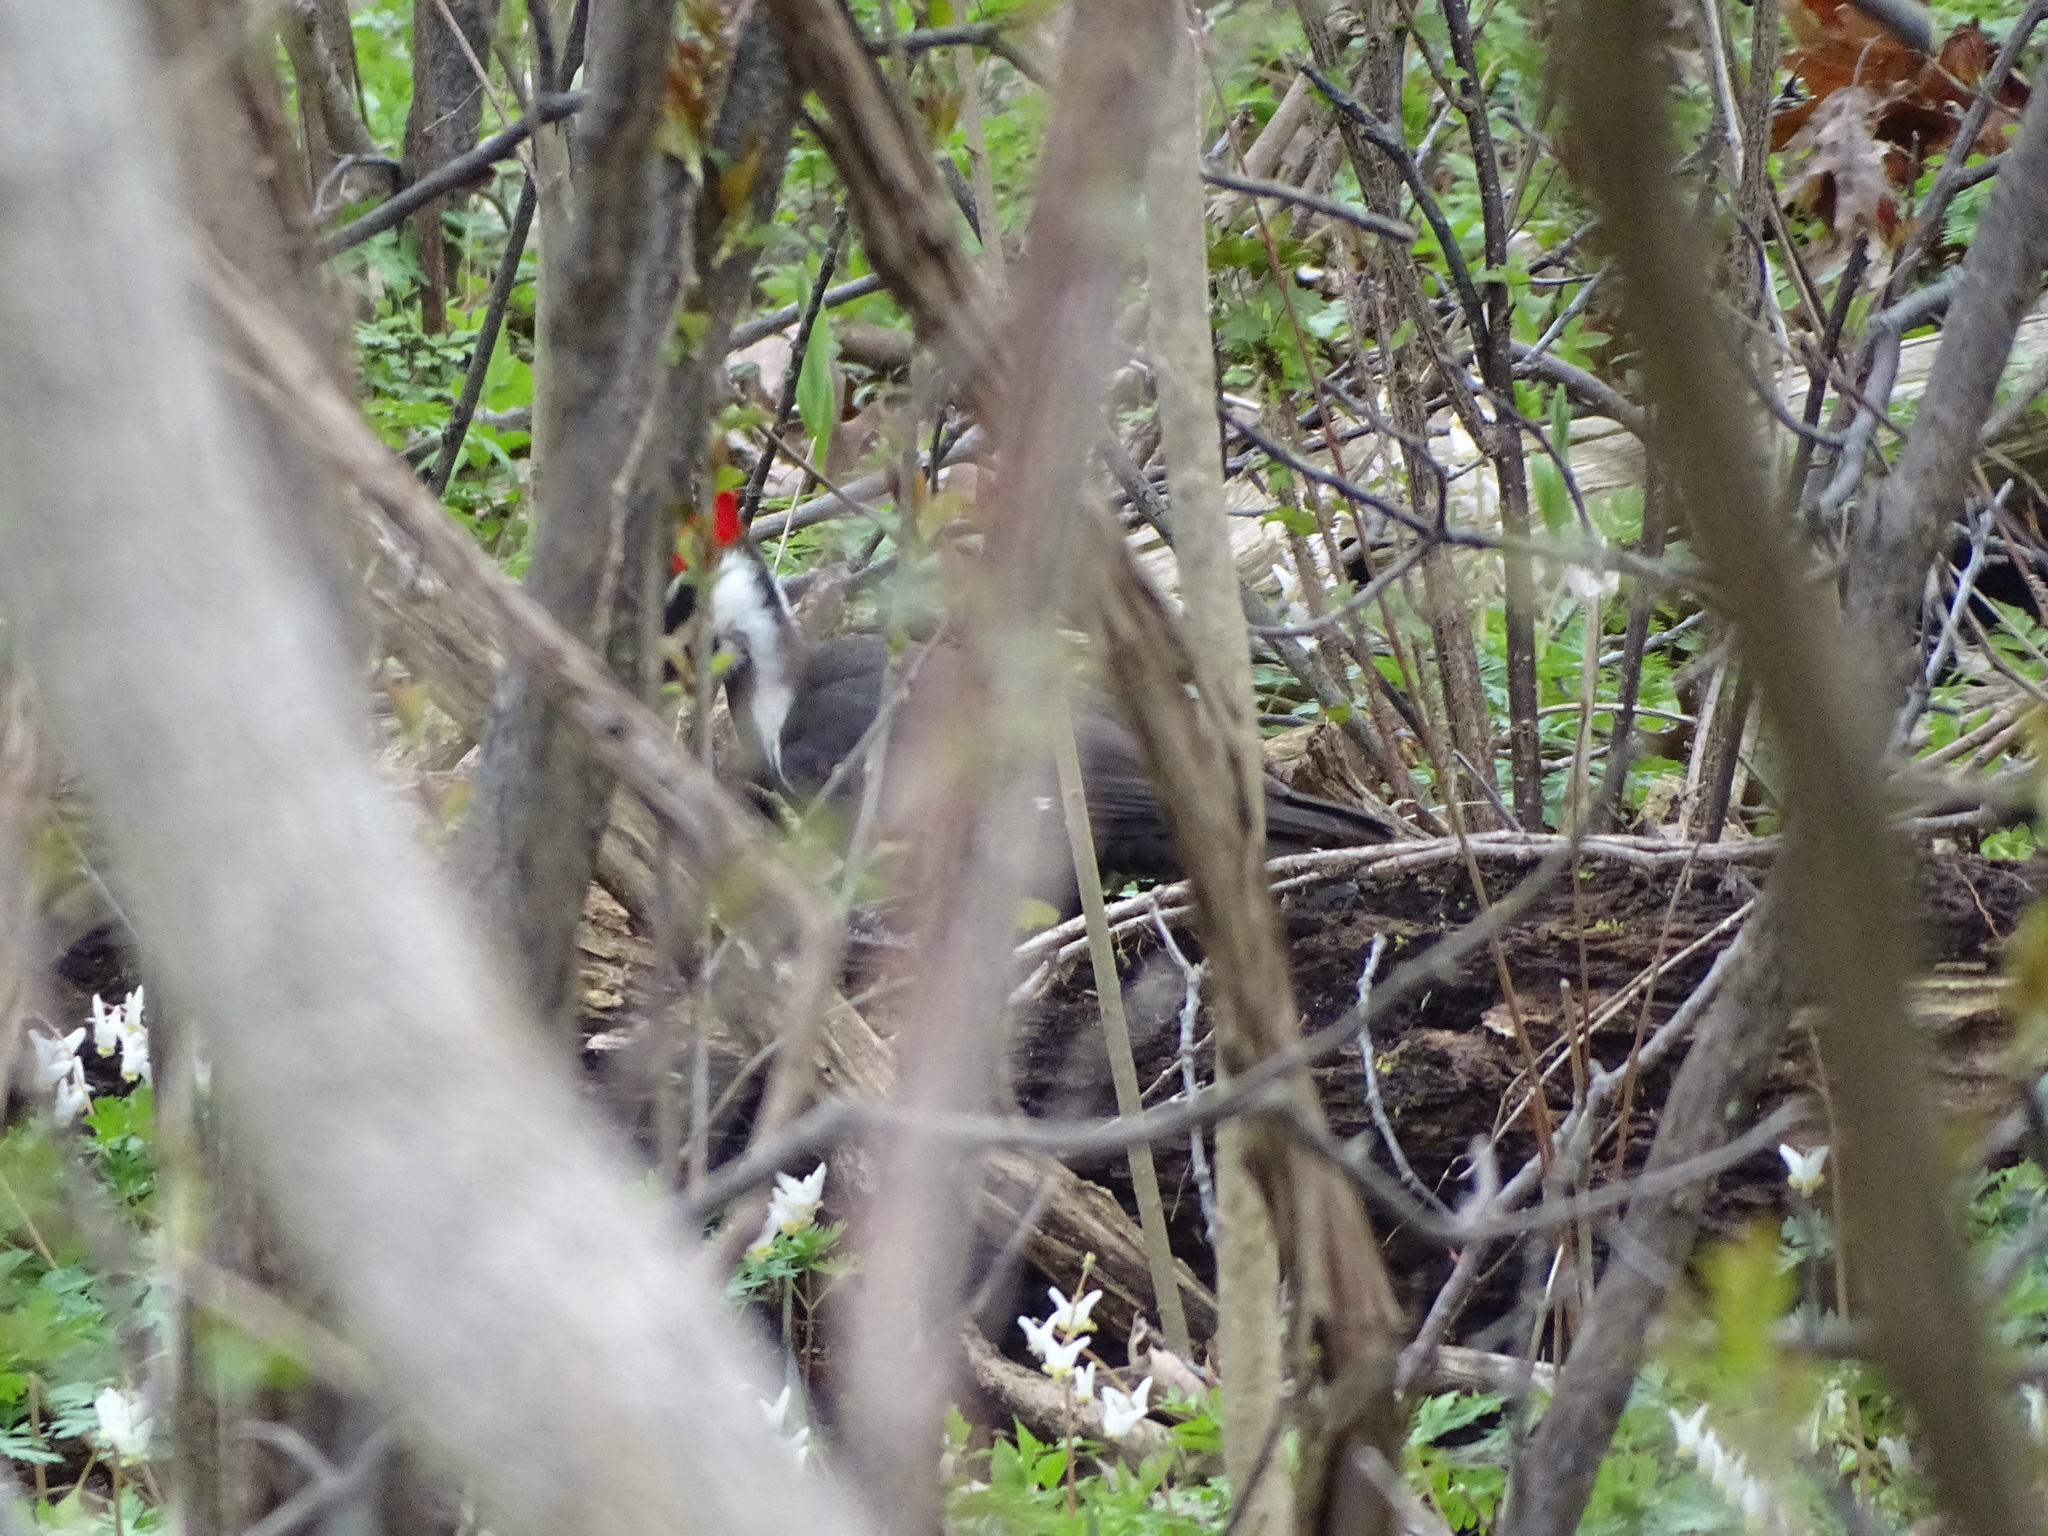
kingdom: Animalia
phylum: Chordata
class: Aves
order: Piciformes
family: Picidae
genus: Dryocopus
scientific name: Dryocopus pileatus
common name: Pileated woodpecker
